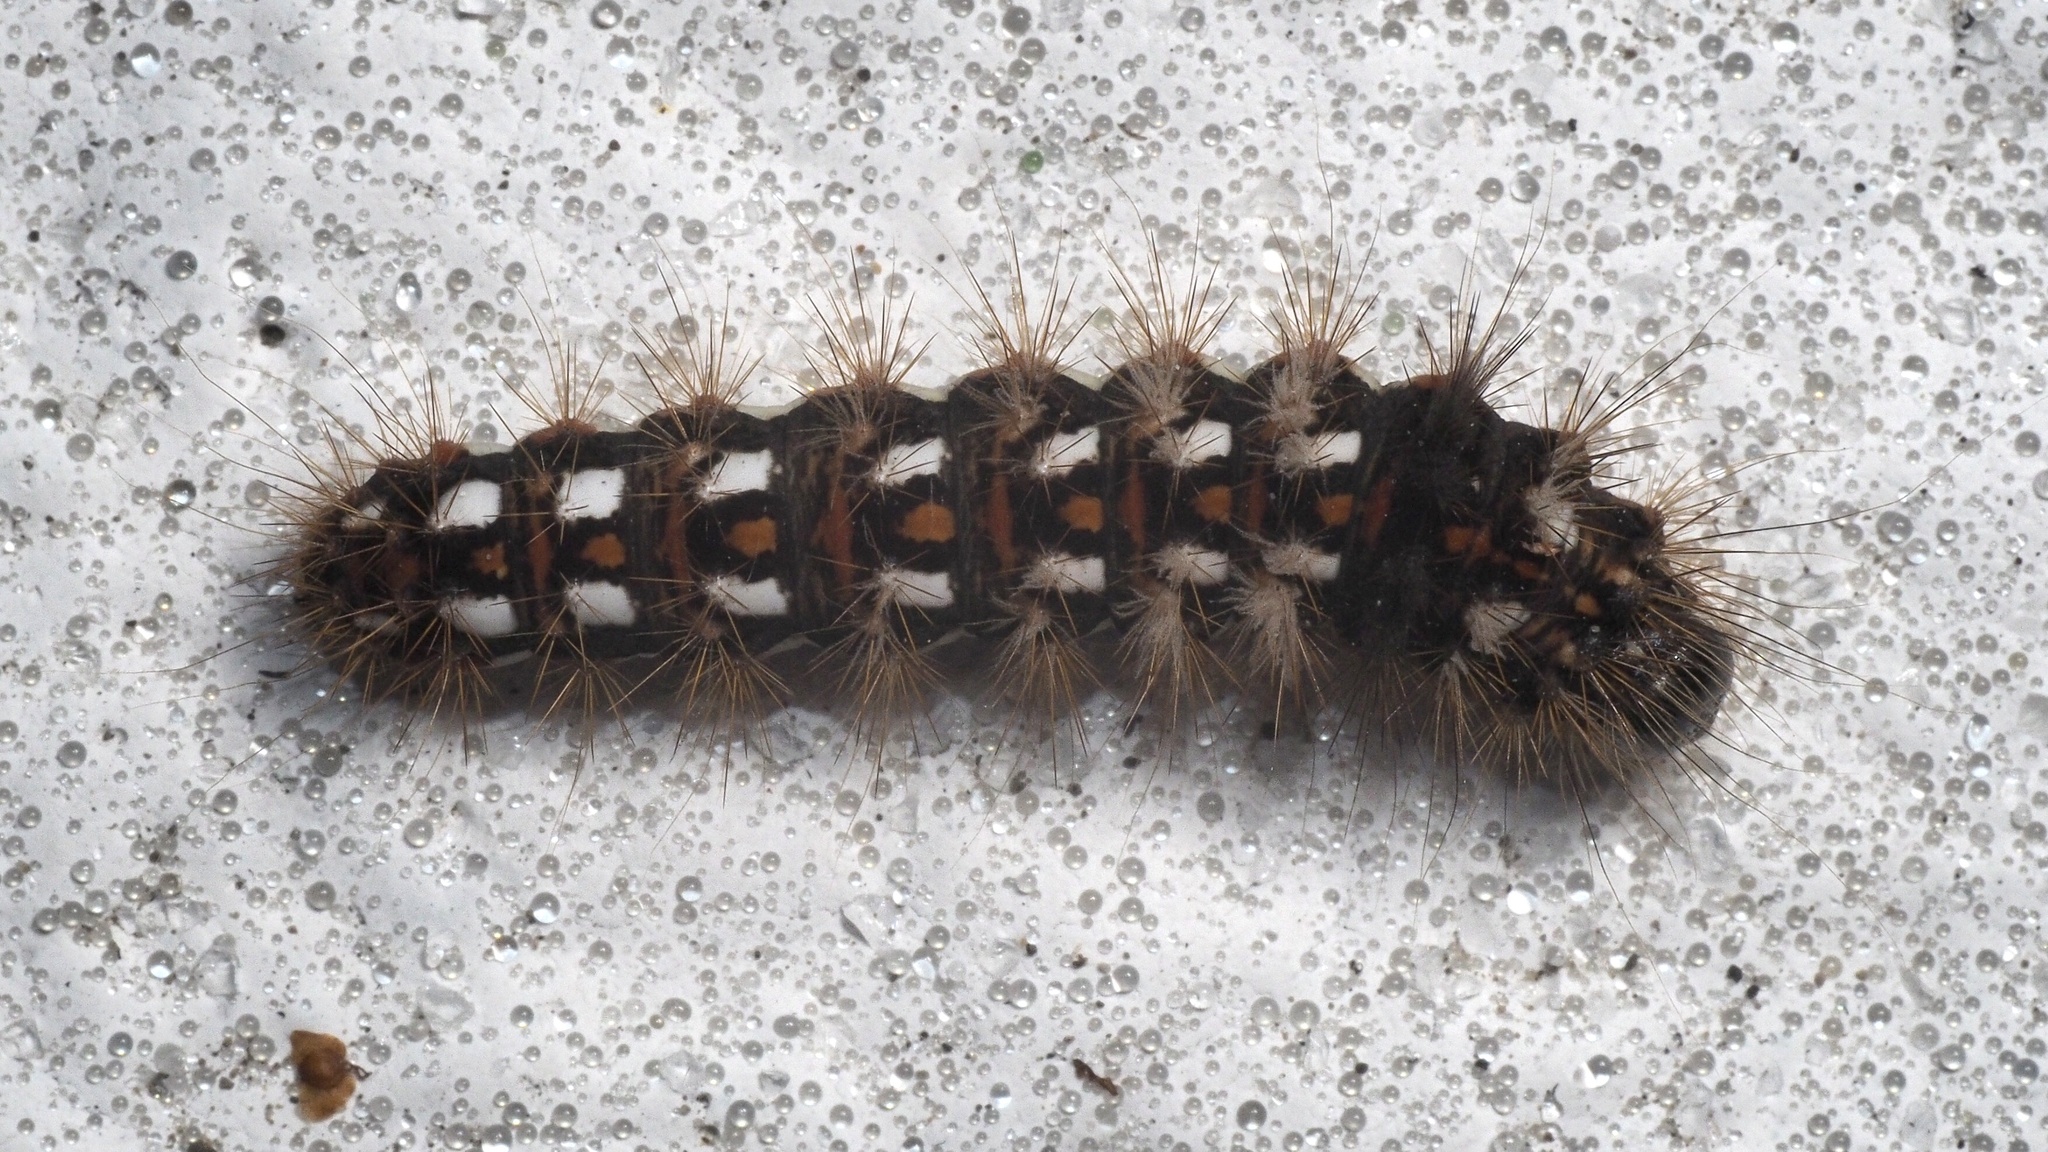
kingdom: Animalia
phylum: Arthropoda
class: Insecta
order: Lepidoptera
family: Noctuidae
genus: Acronicta
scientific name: Acronicta rumicis
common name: Knot grass
